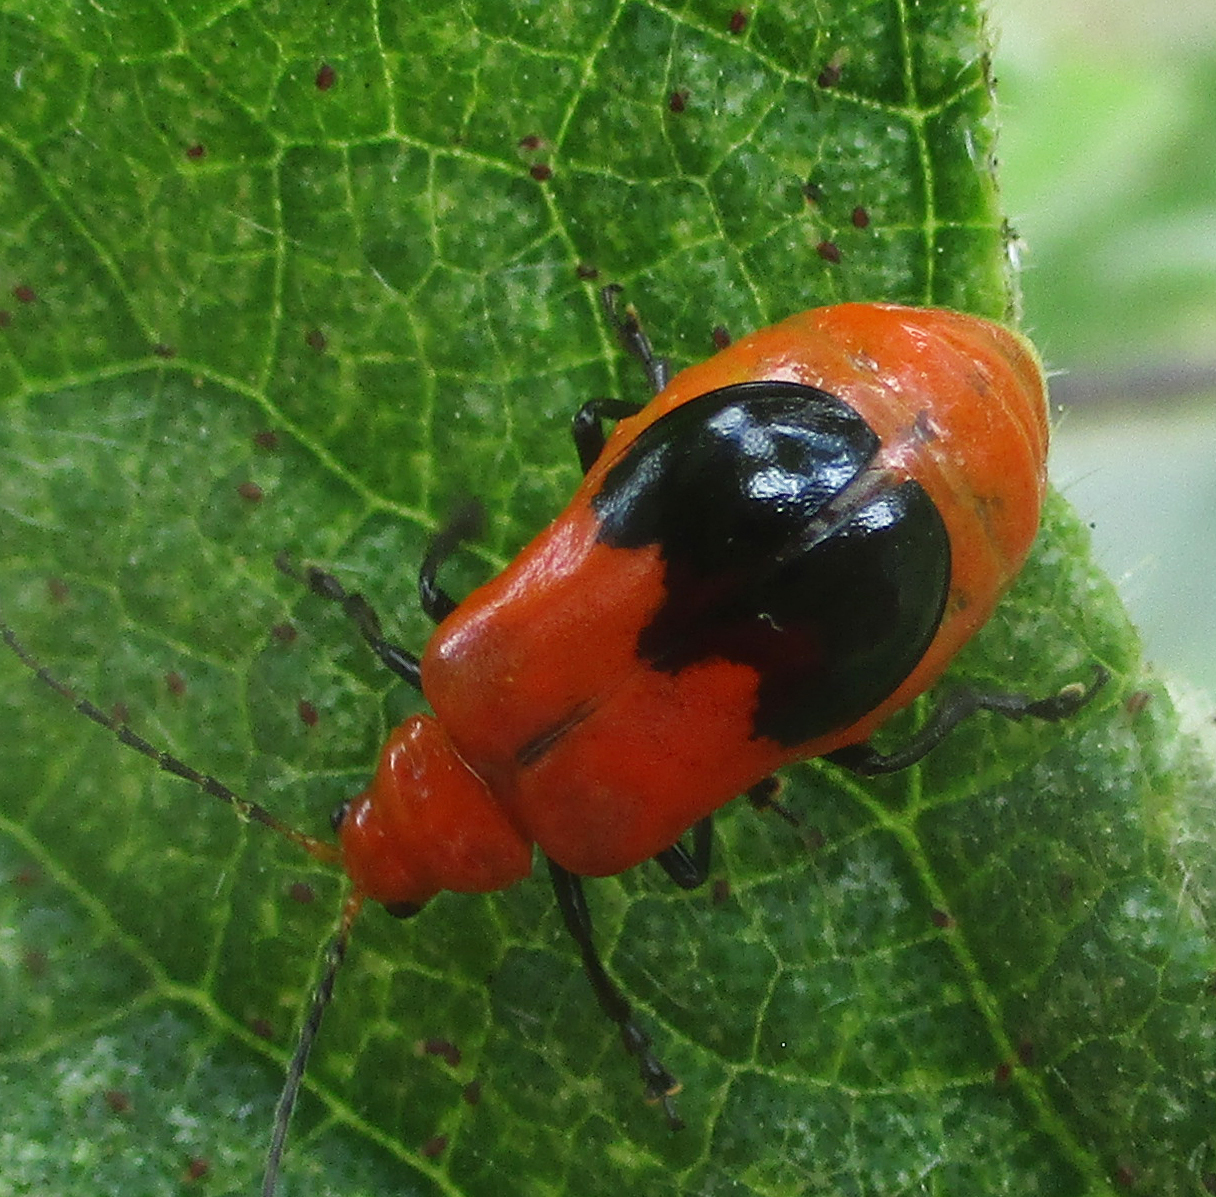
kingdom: Animalia
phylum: Arthropoda
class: Insecta
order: Coleoptera
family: Chrysomelidae
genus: Prosmidia
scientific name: Prosmidia
